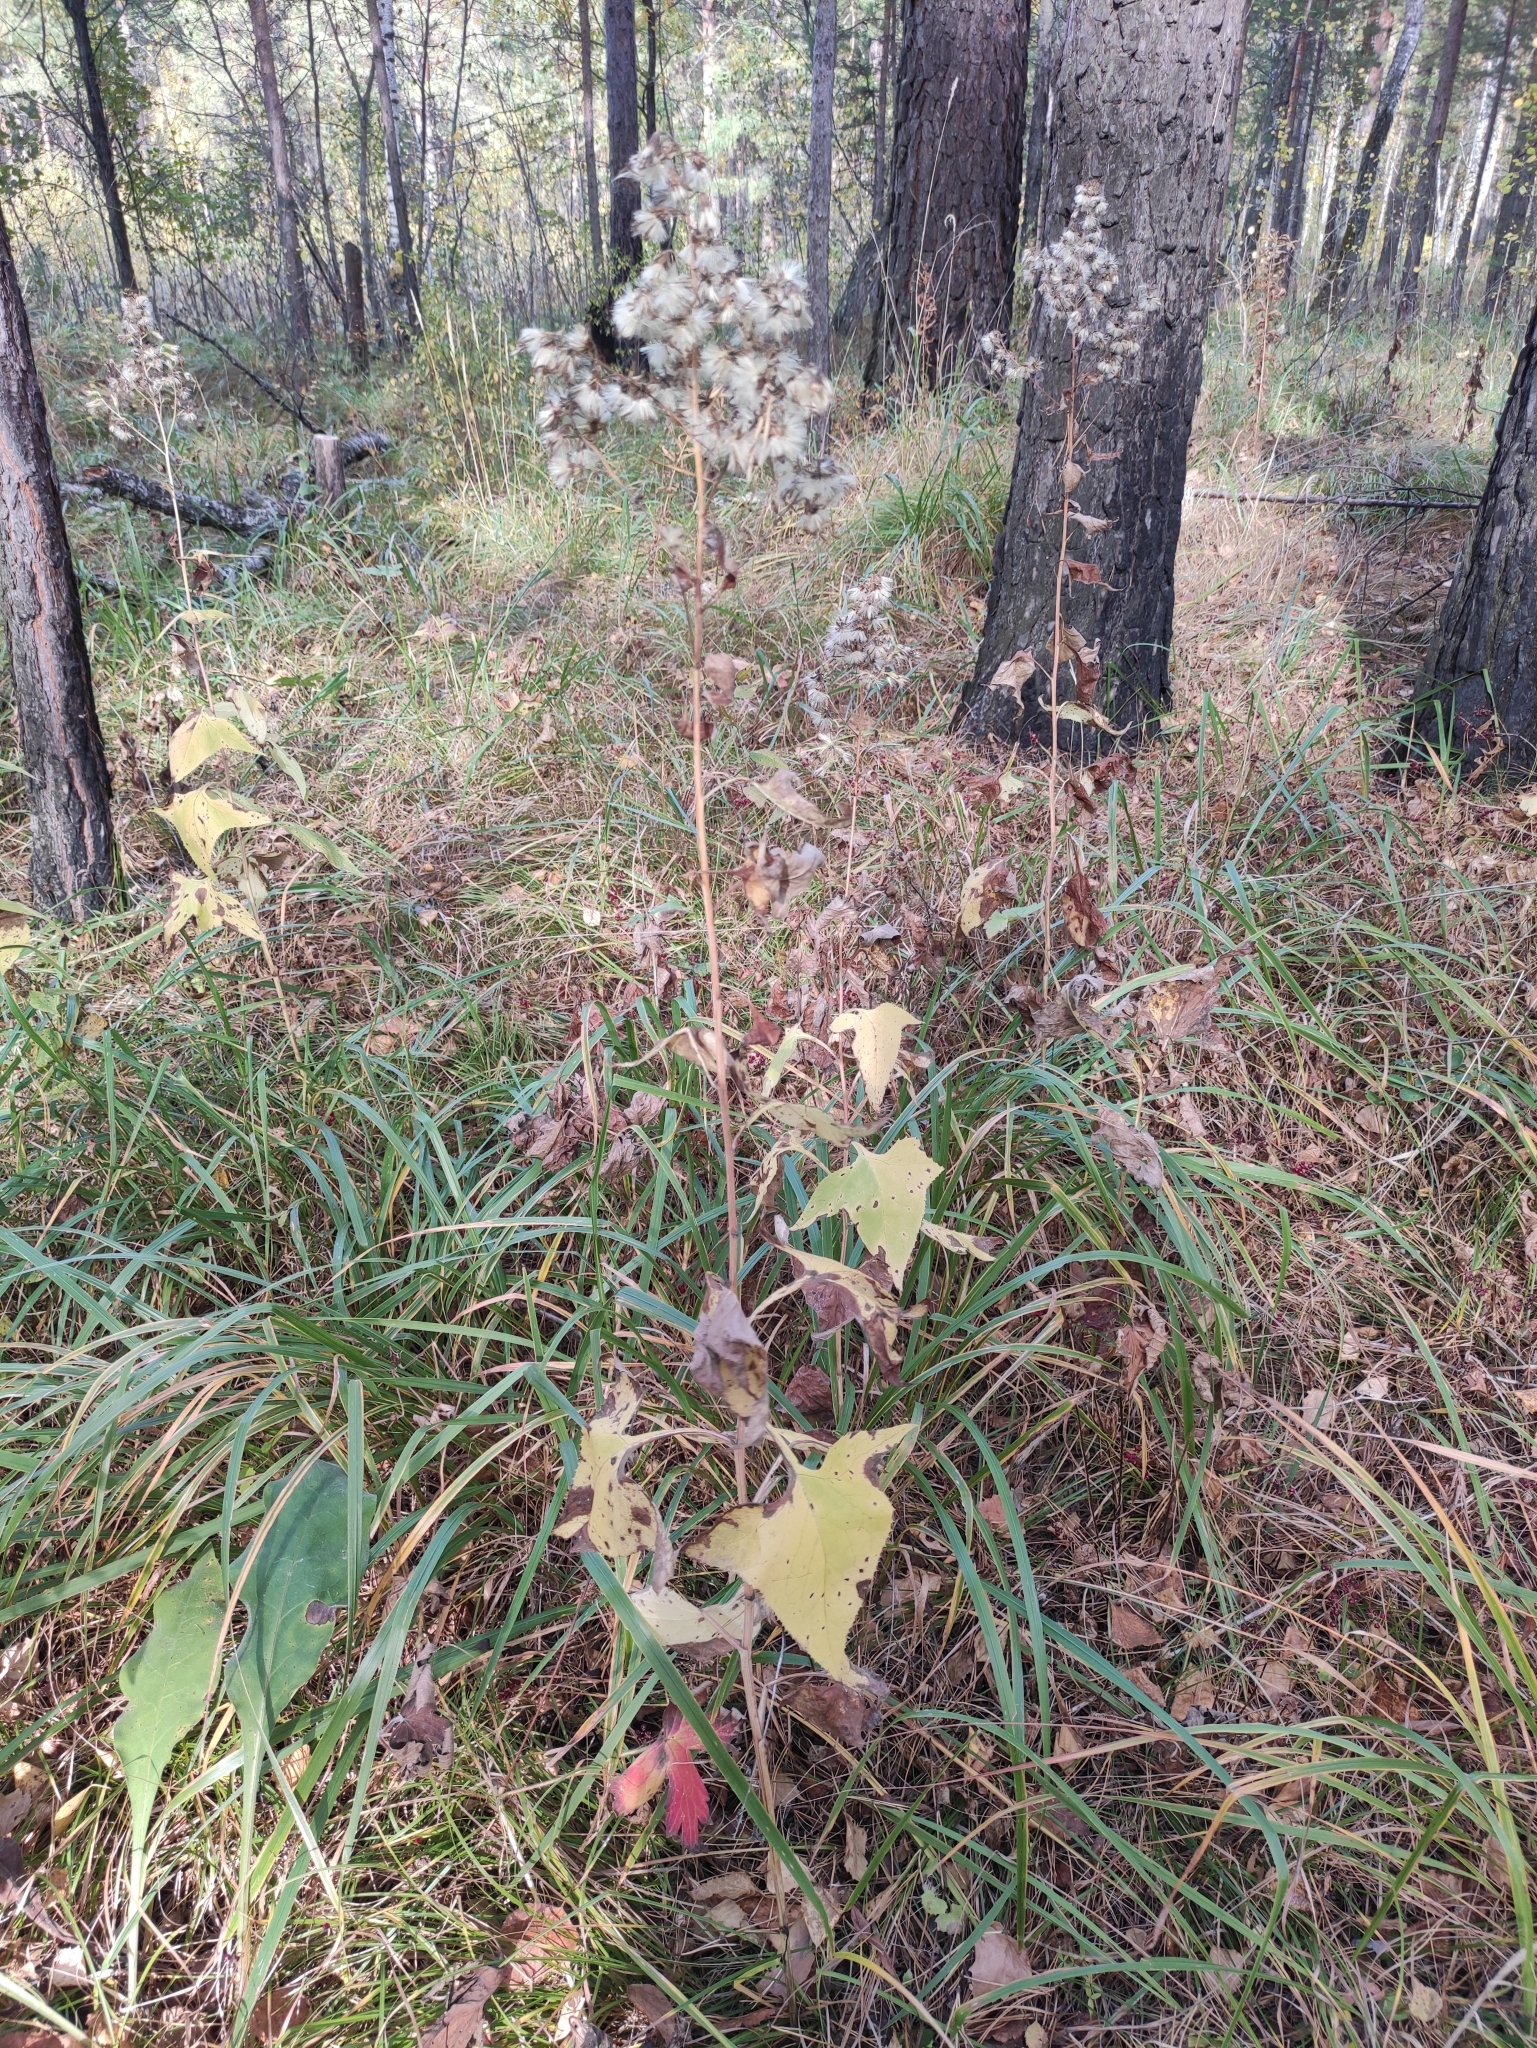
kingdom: Plantae
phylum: Tracheophyta
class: Magnoliopsida
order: Asterales
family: Asteraceae
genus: Parasenecio
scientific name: Parasenecio hastatus
